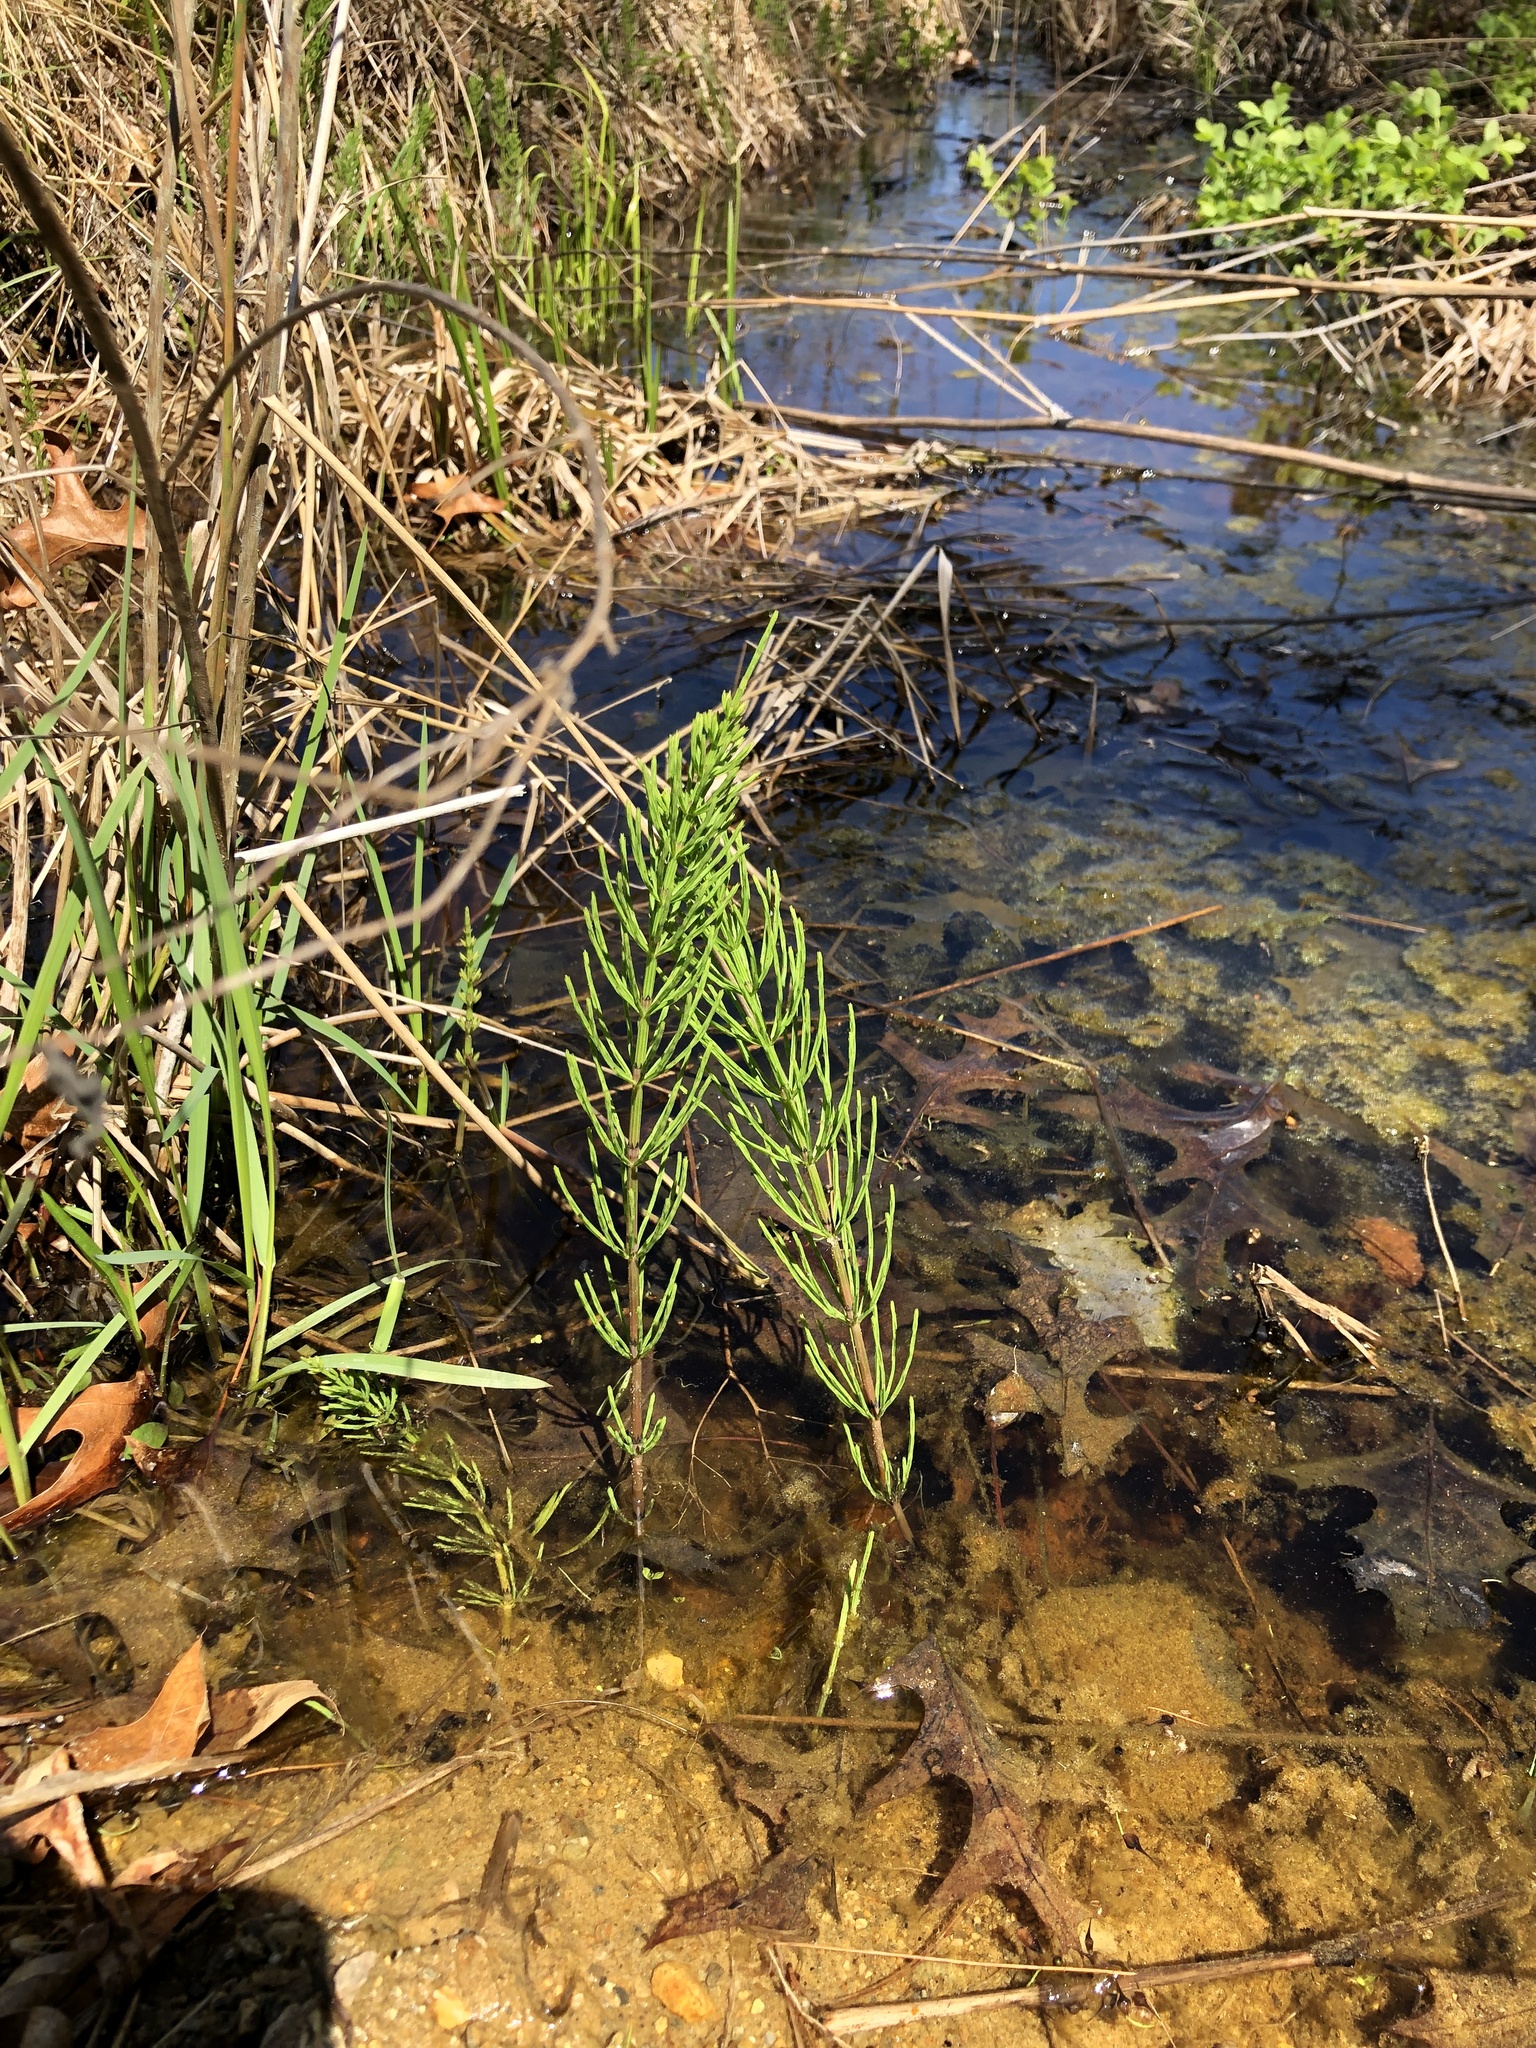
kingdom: Plantae
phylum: Tracheophyta
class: Polypodiopsida
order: Equisetales
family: Equisetaceae
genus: Equisetum
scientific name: Equisetum arvense
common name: Field horsetail
